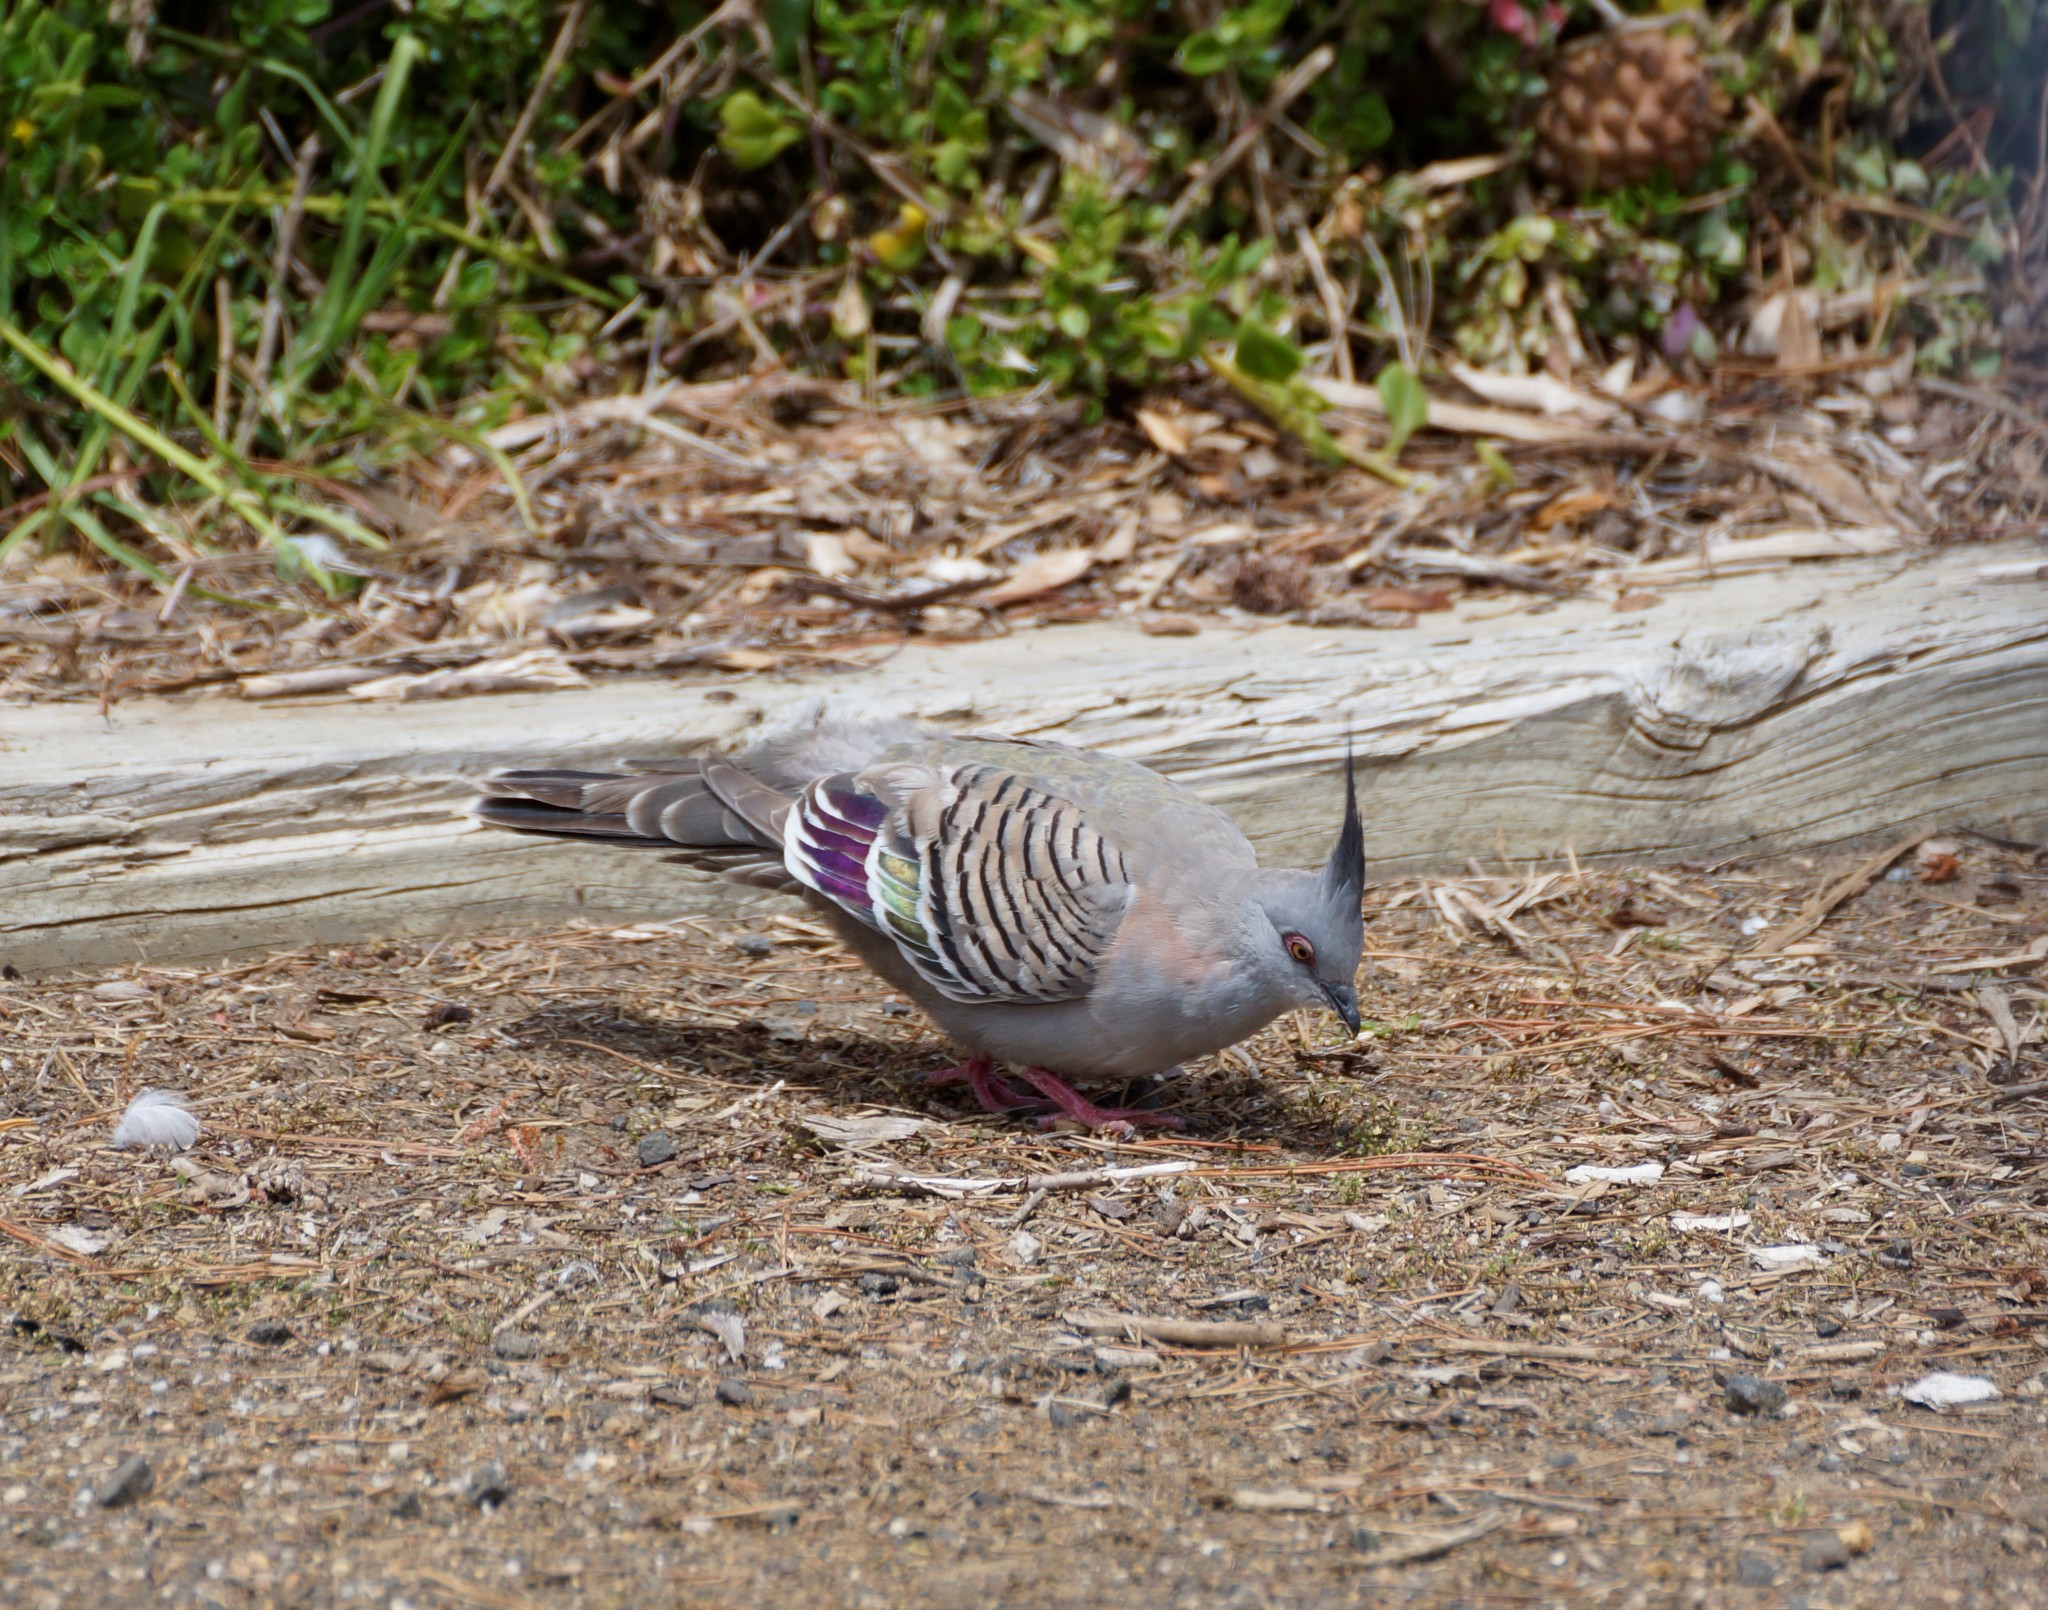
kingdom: Animalia
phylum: Chordata
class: Aves
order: Columbiformes
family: Columbidae
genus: Ocyphaps
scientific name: Ocyphaps lophotes
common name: Crested pigeon
